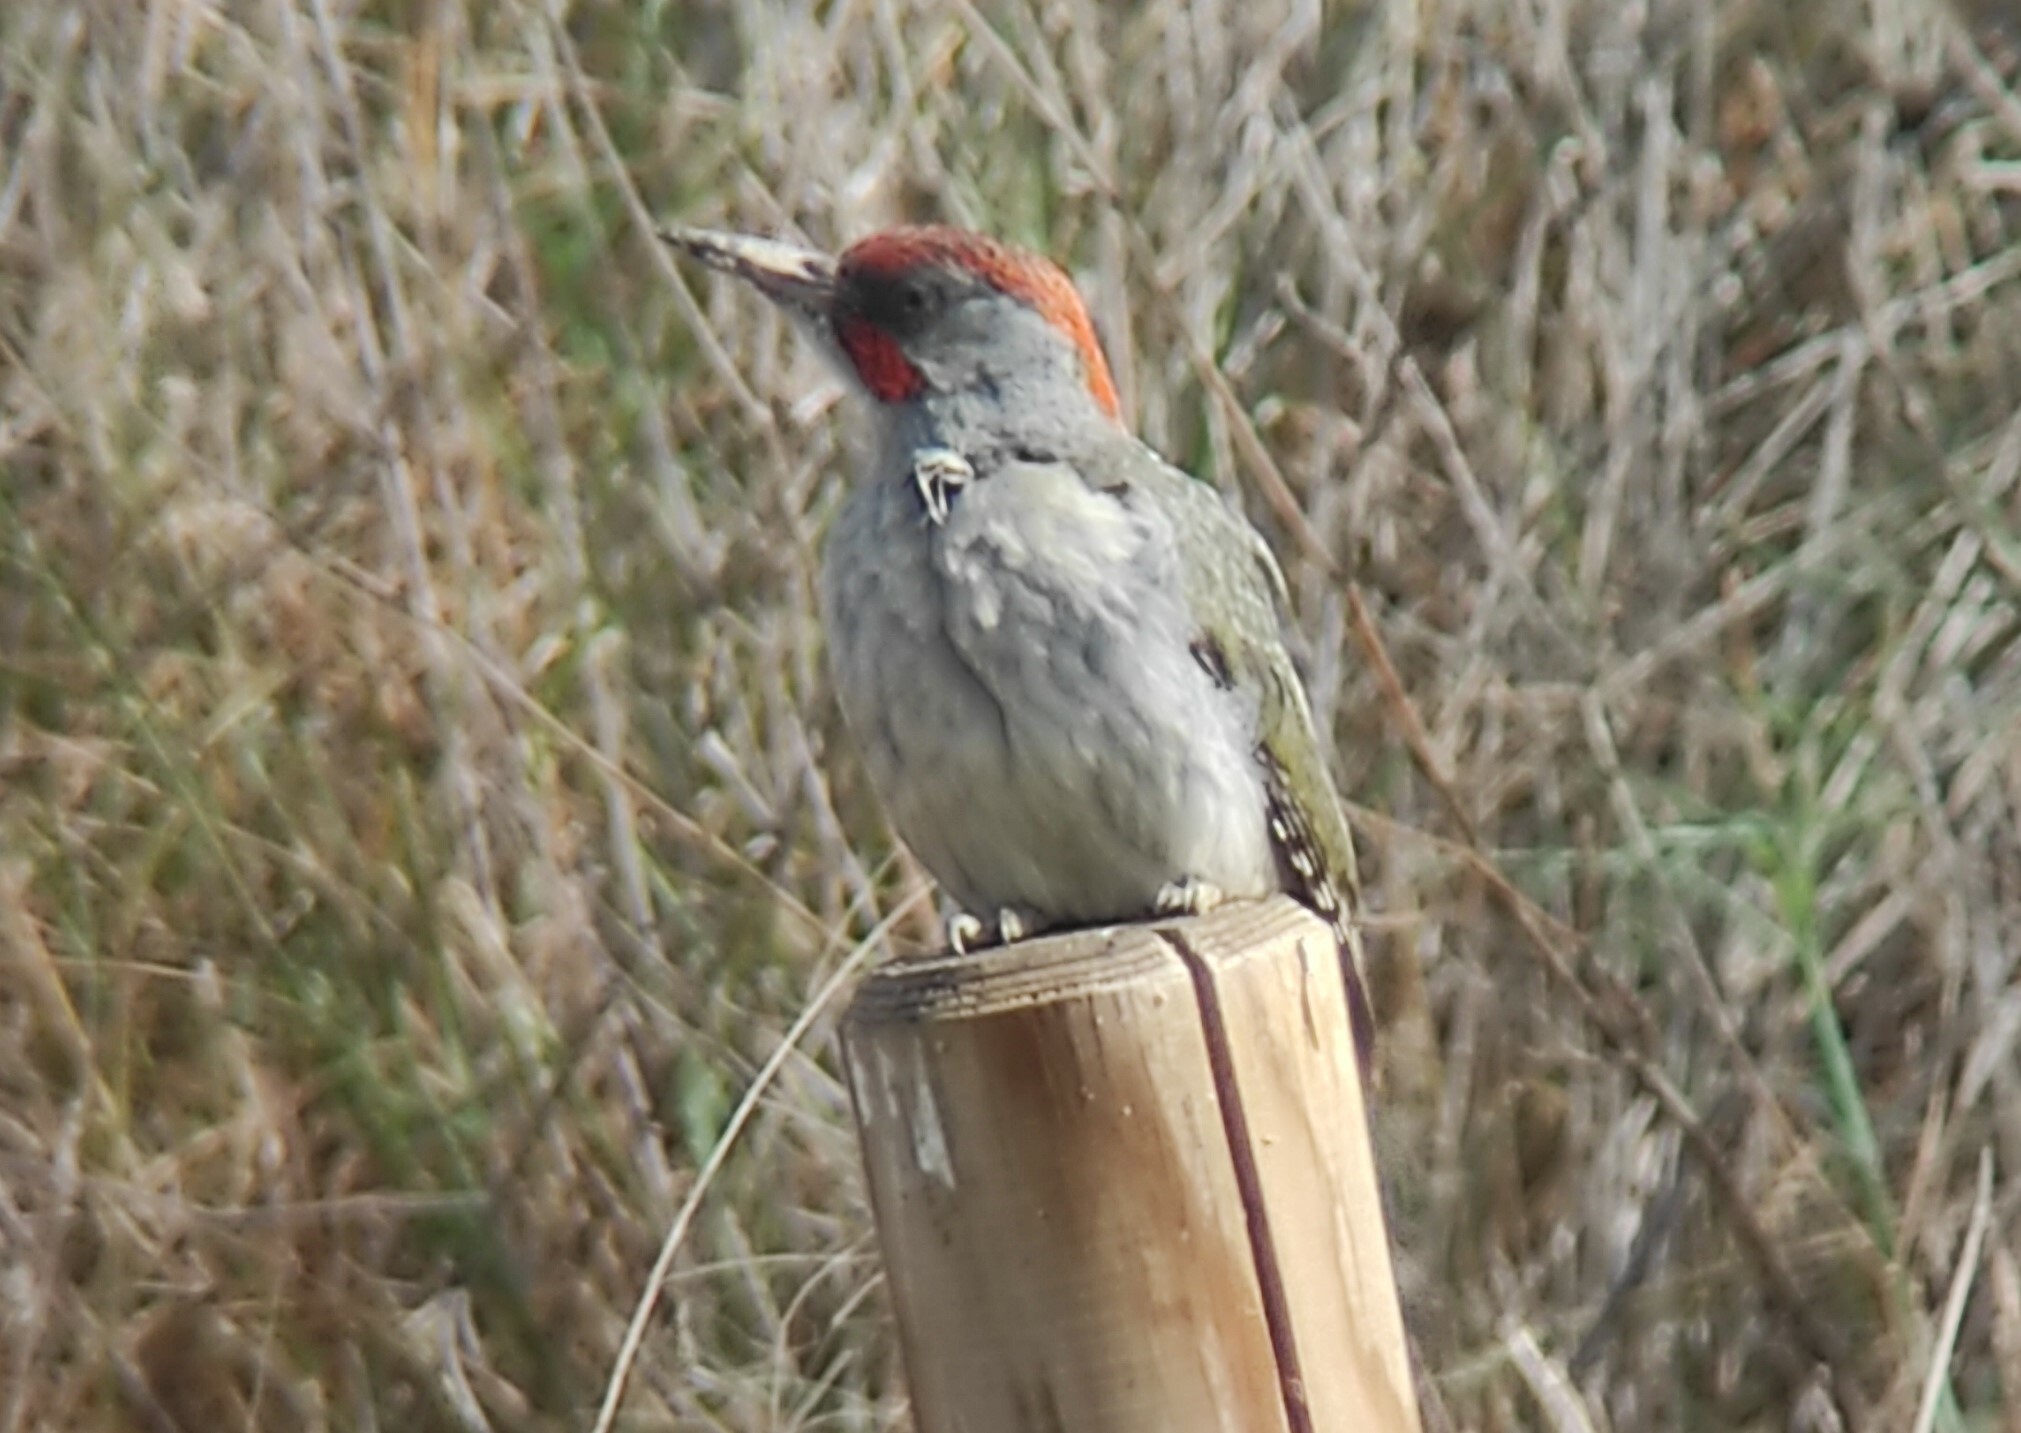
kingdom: Animalia
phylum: Chordata
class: Aves
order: Piciformes
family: Picidae
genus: Picus
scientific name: Picus sharpei
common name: Iberian green woodpecker
